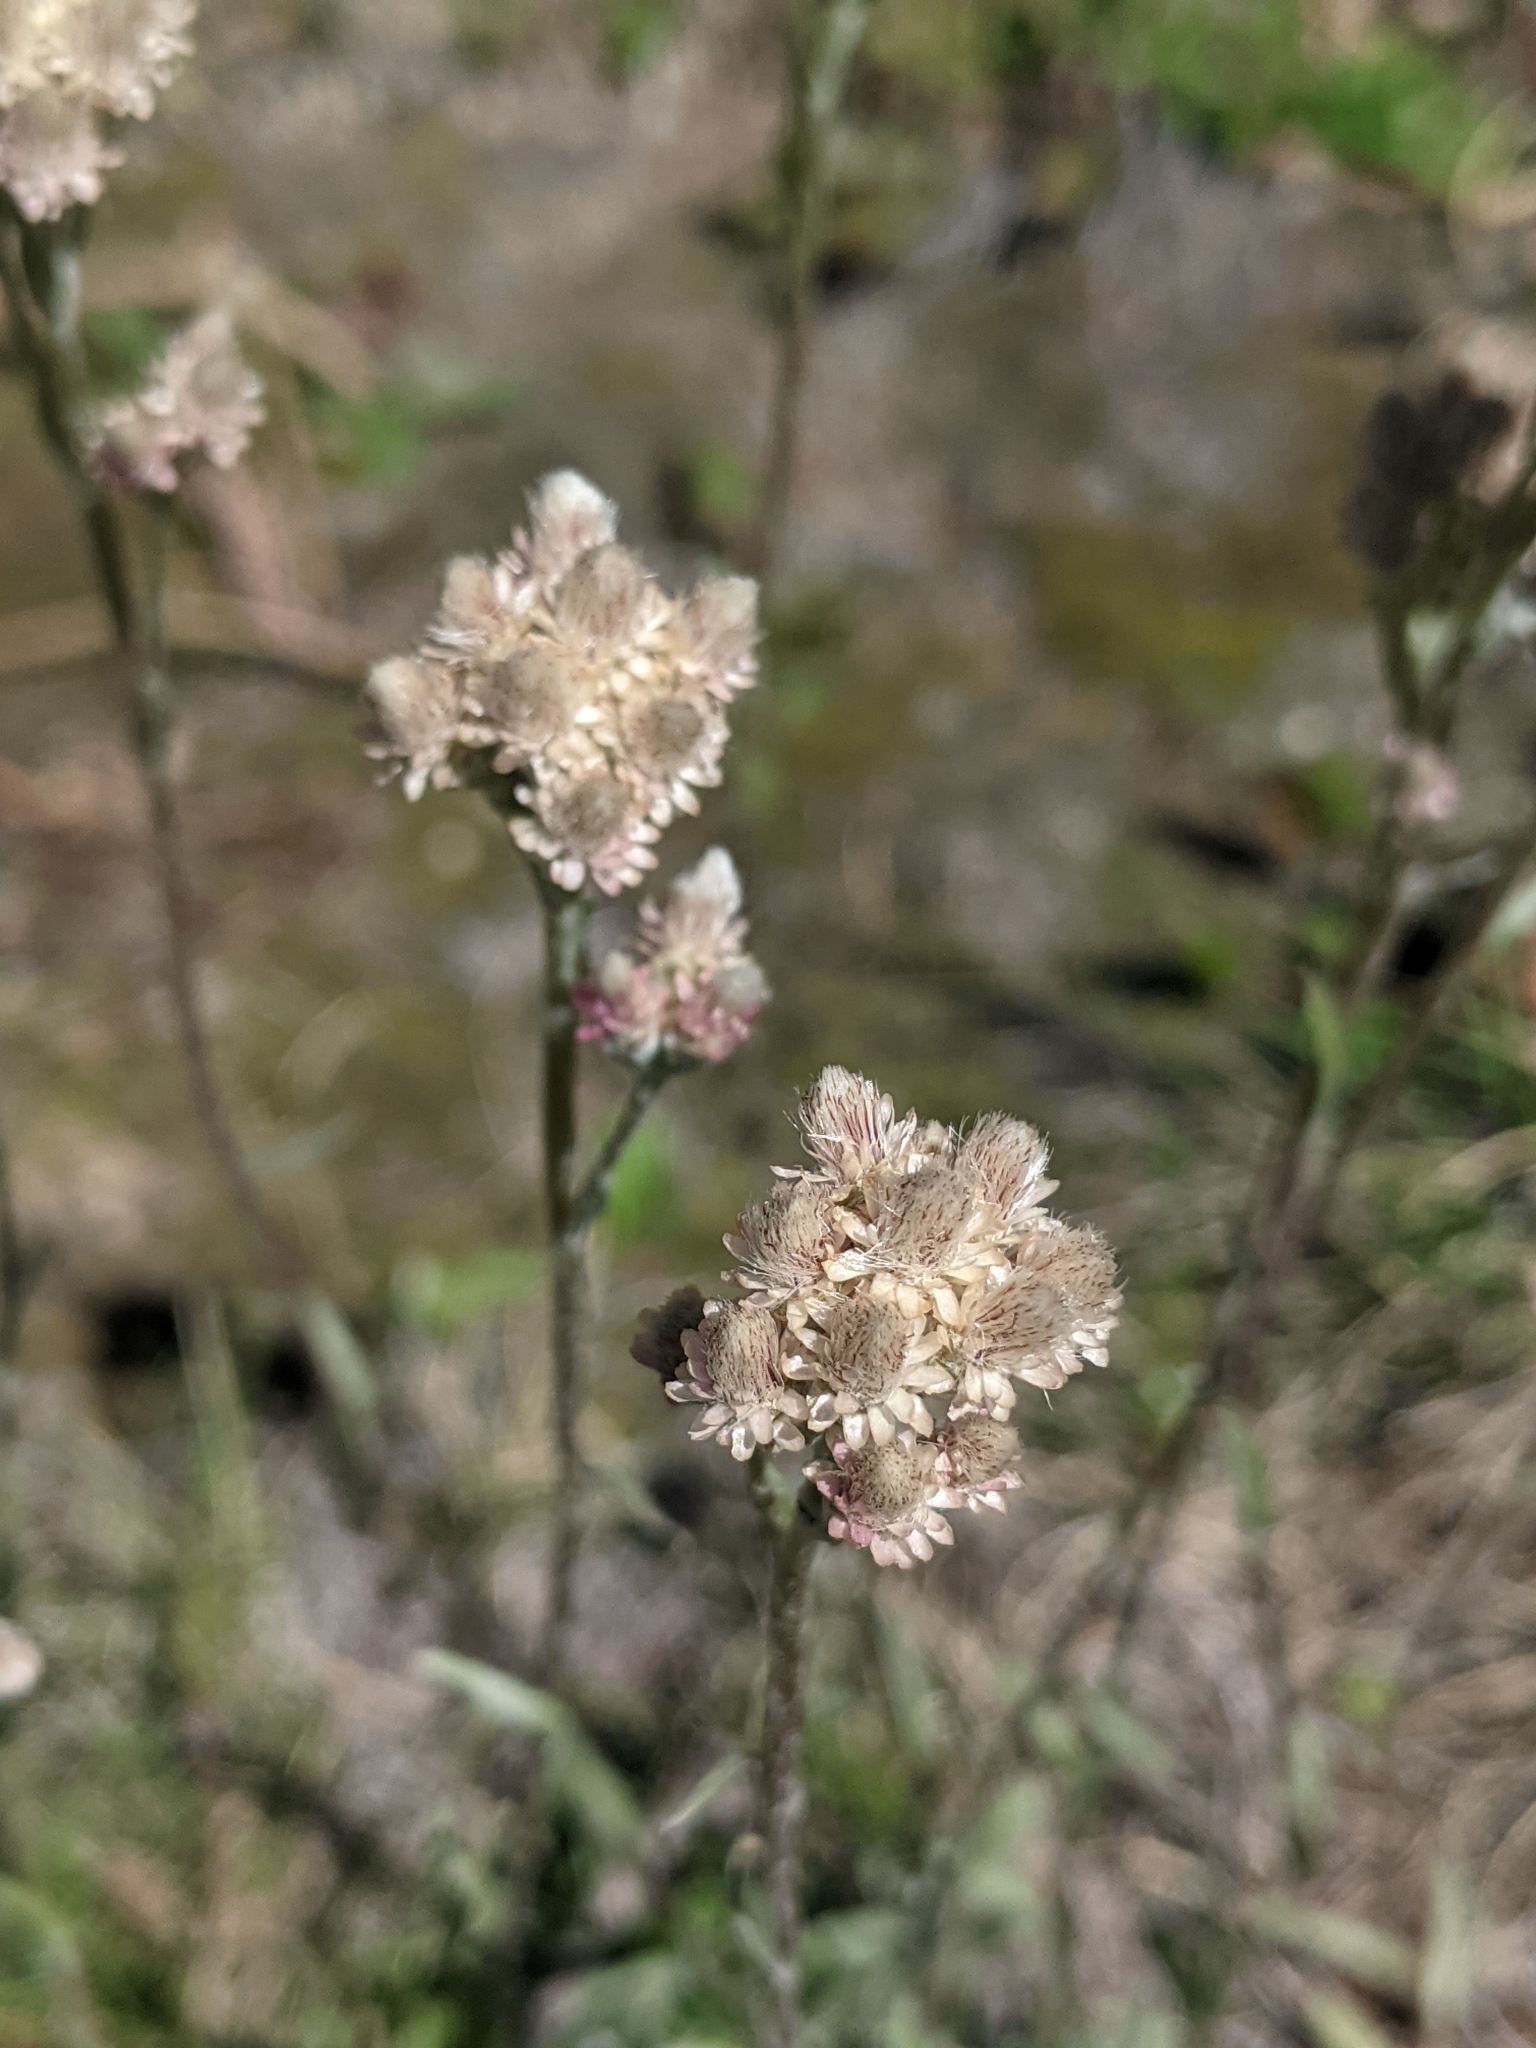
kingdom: Plantae
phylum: Tracheophyta
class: Magnoliopsida
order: Asterales
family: Asteraceae
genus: Antennaria
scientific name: Antennaria rosea
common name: Rosy pussytoes
